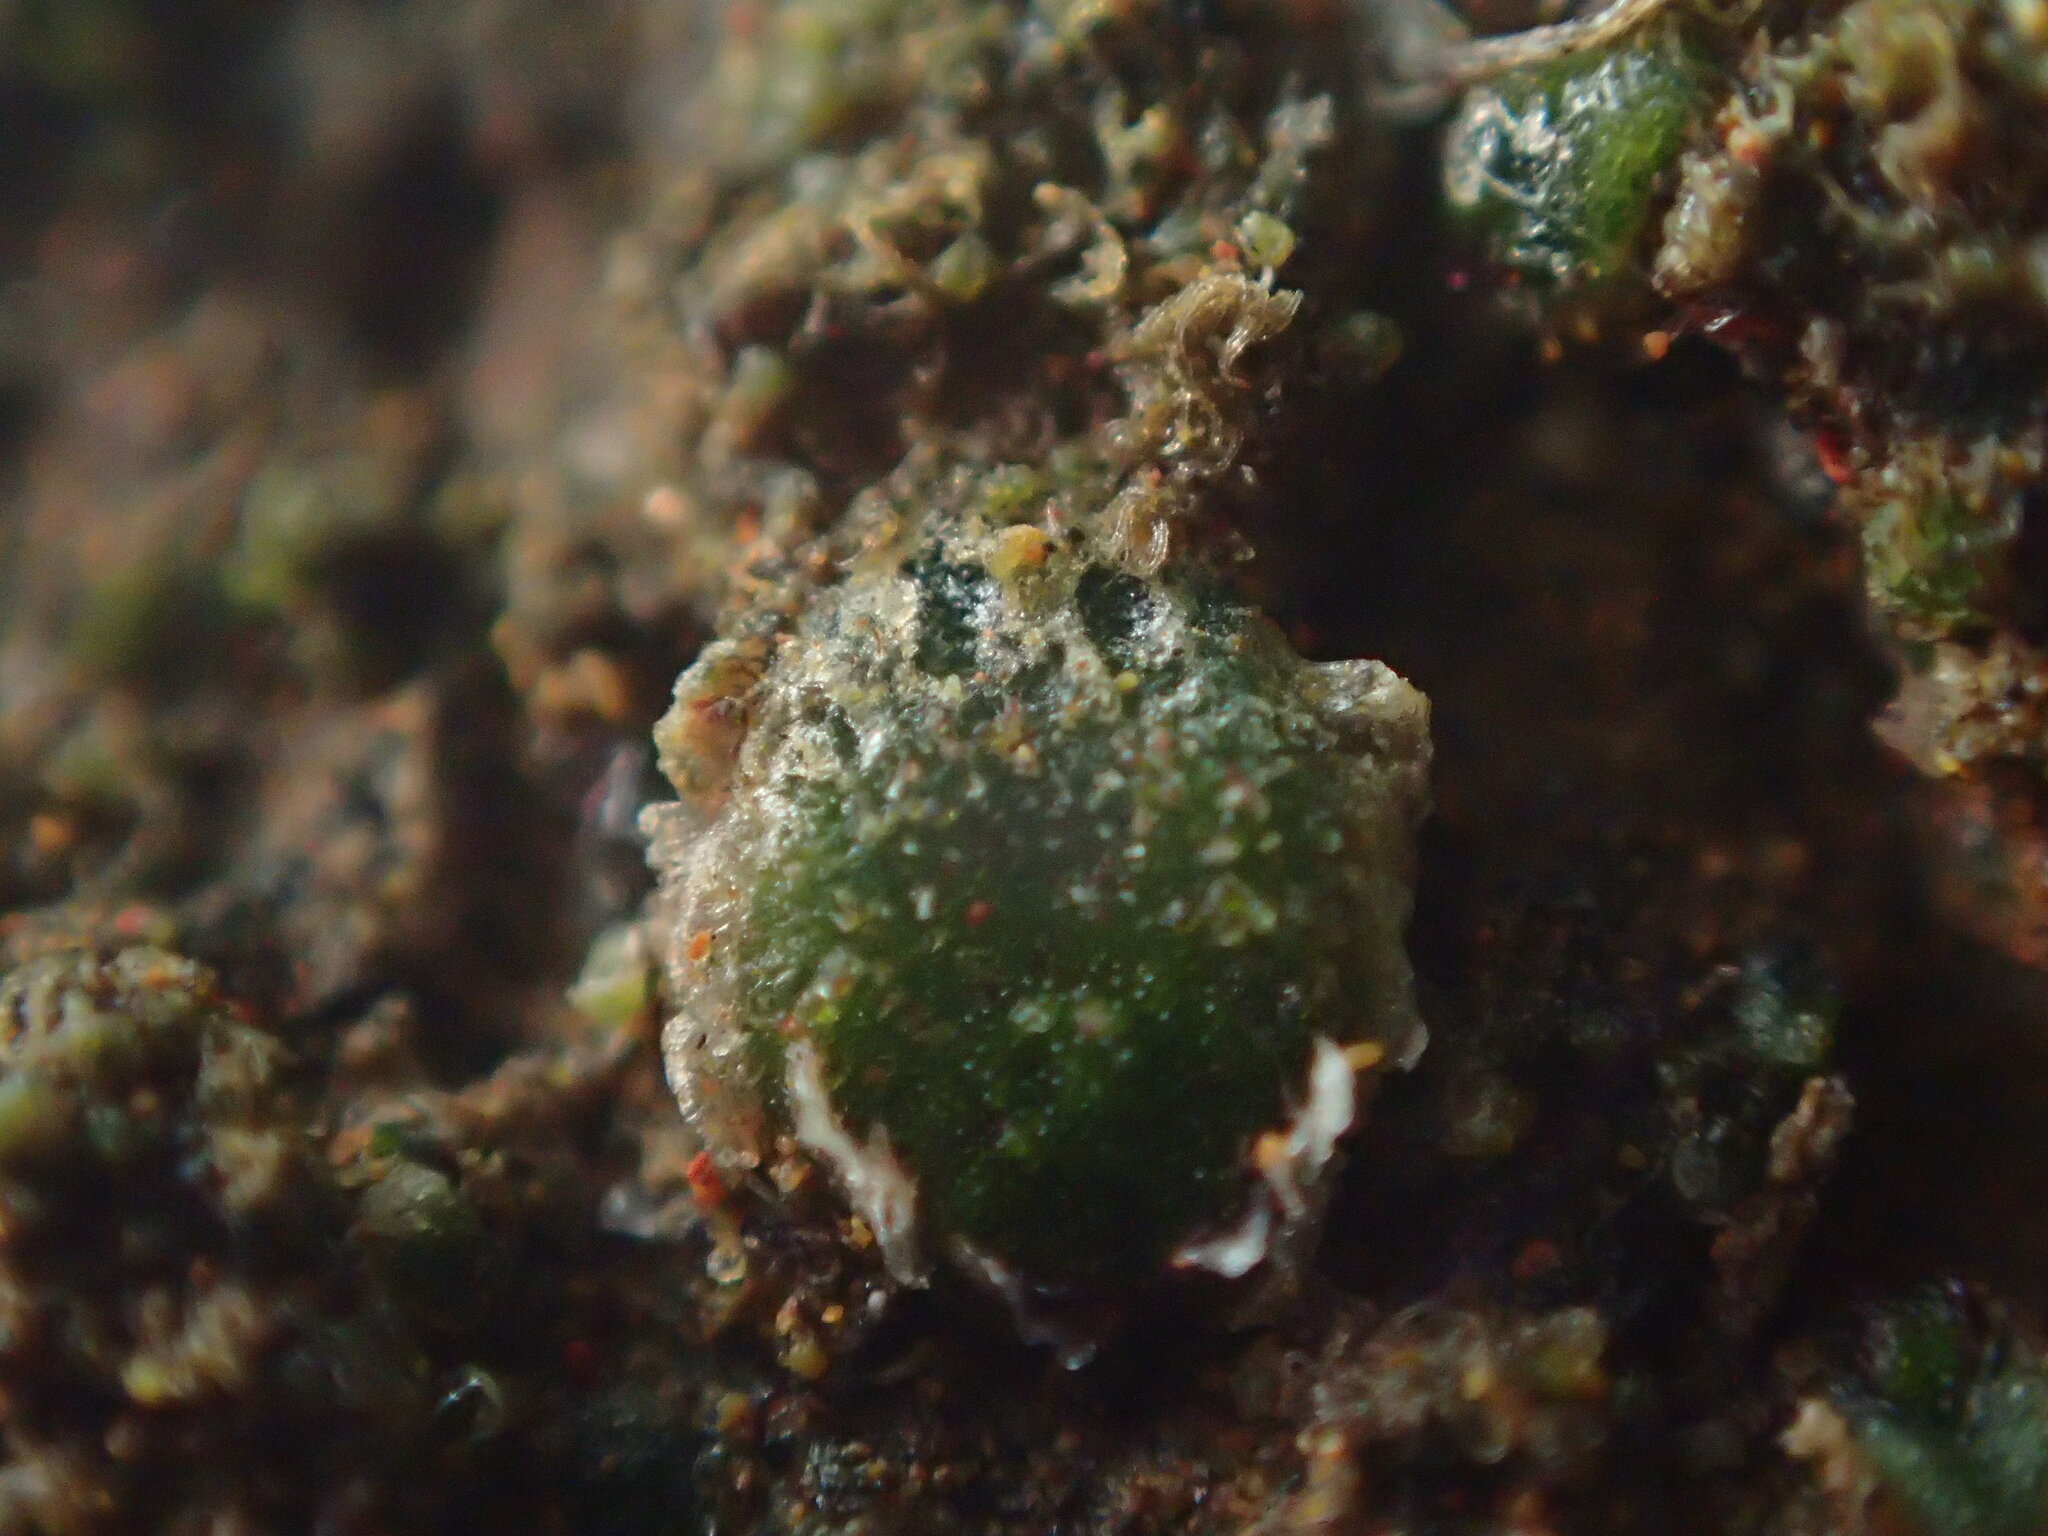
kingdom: Plantae
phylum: Marchantiophyta
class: Jungermanniopsida
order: Jungermanniales
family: Acrobolbaceae
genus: Enigmella
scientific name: Enigmella thallina
